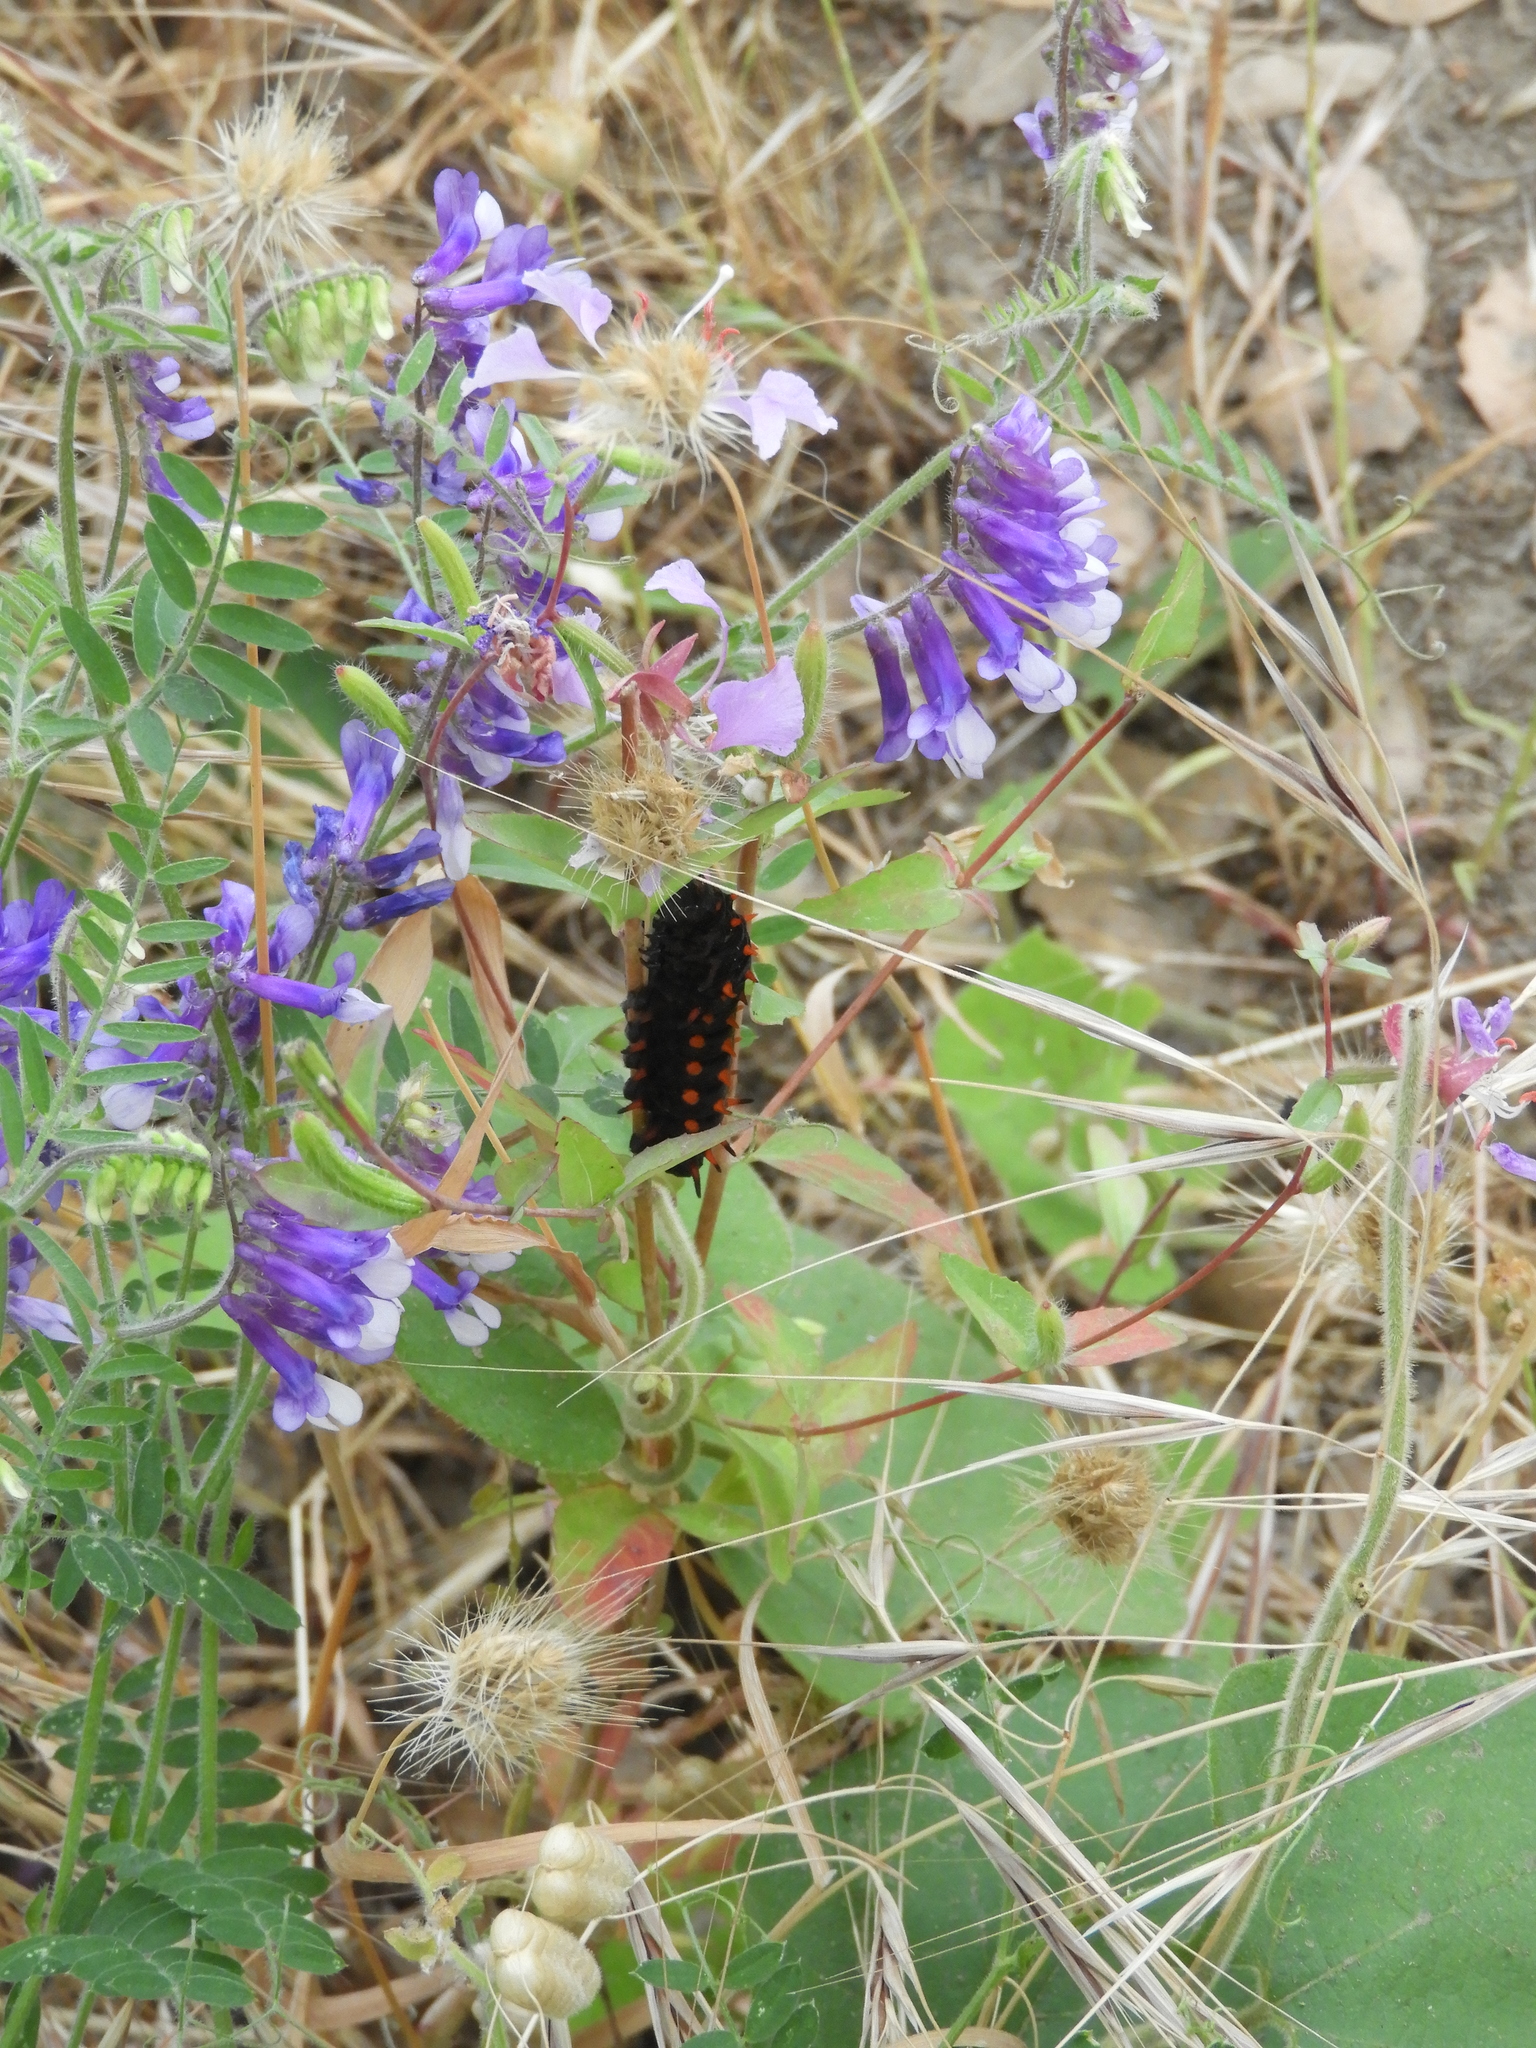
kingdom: Plantae
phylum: Tracheophyta
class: Magnoliopsida
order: Fabales
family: Fabaceae
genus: Vicia
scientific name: Vicia villosa
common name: Fodder vetch
